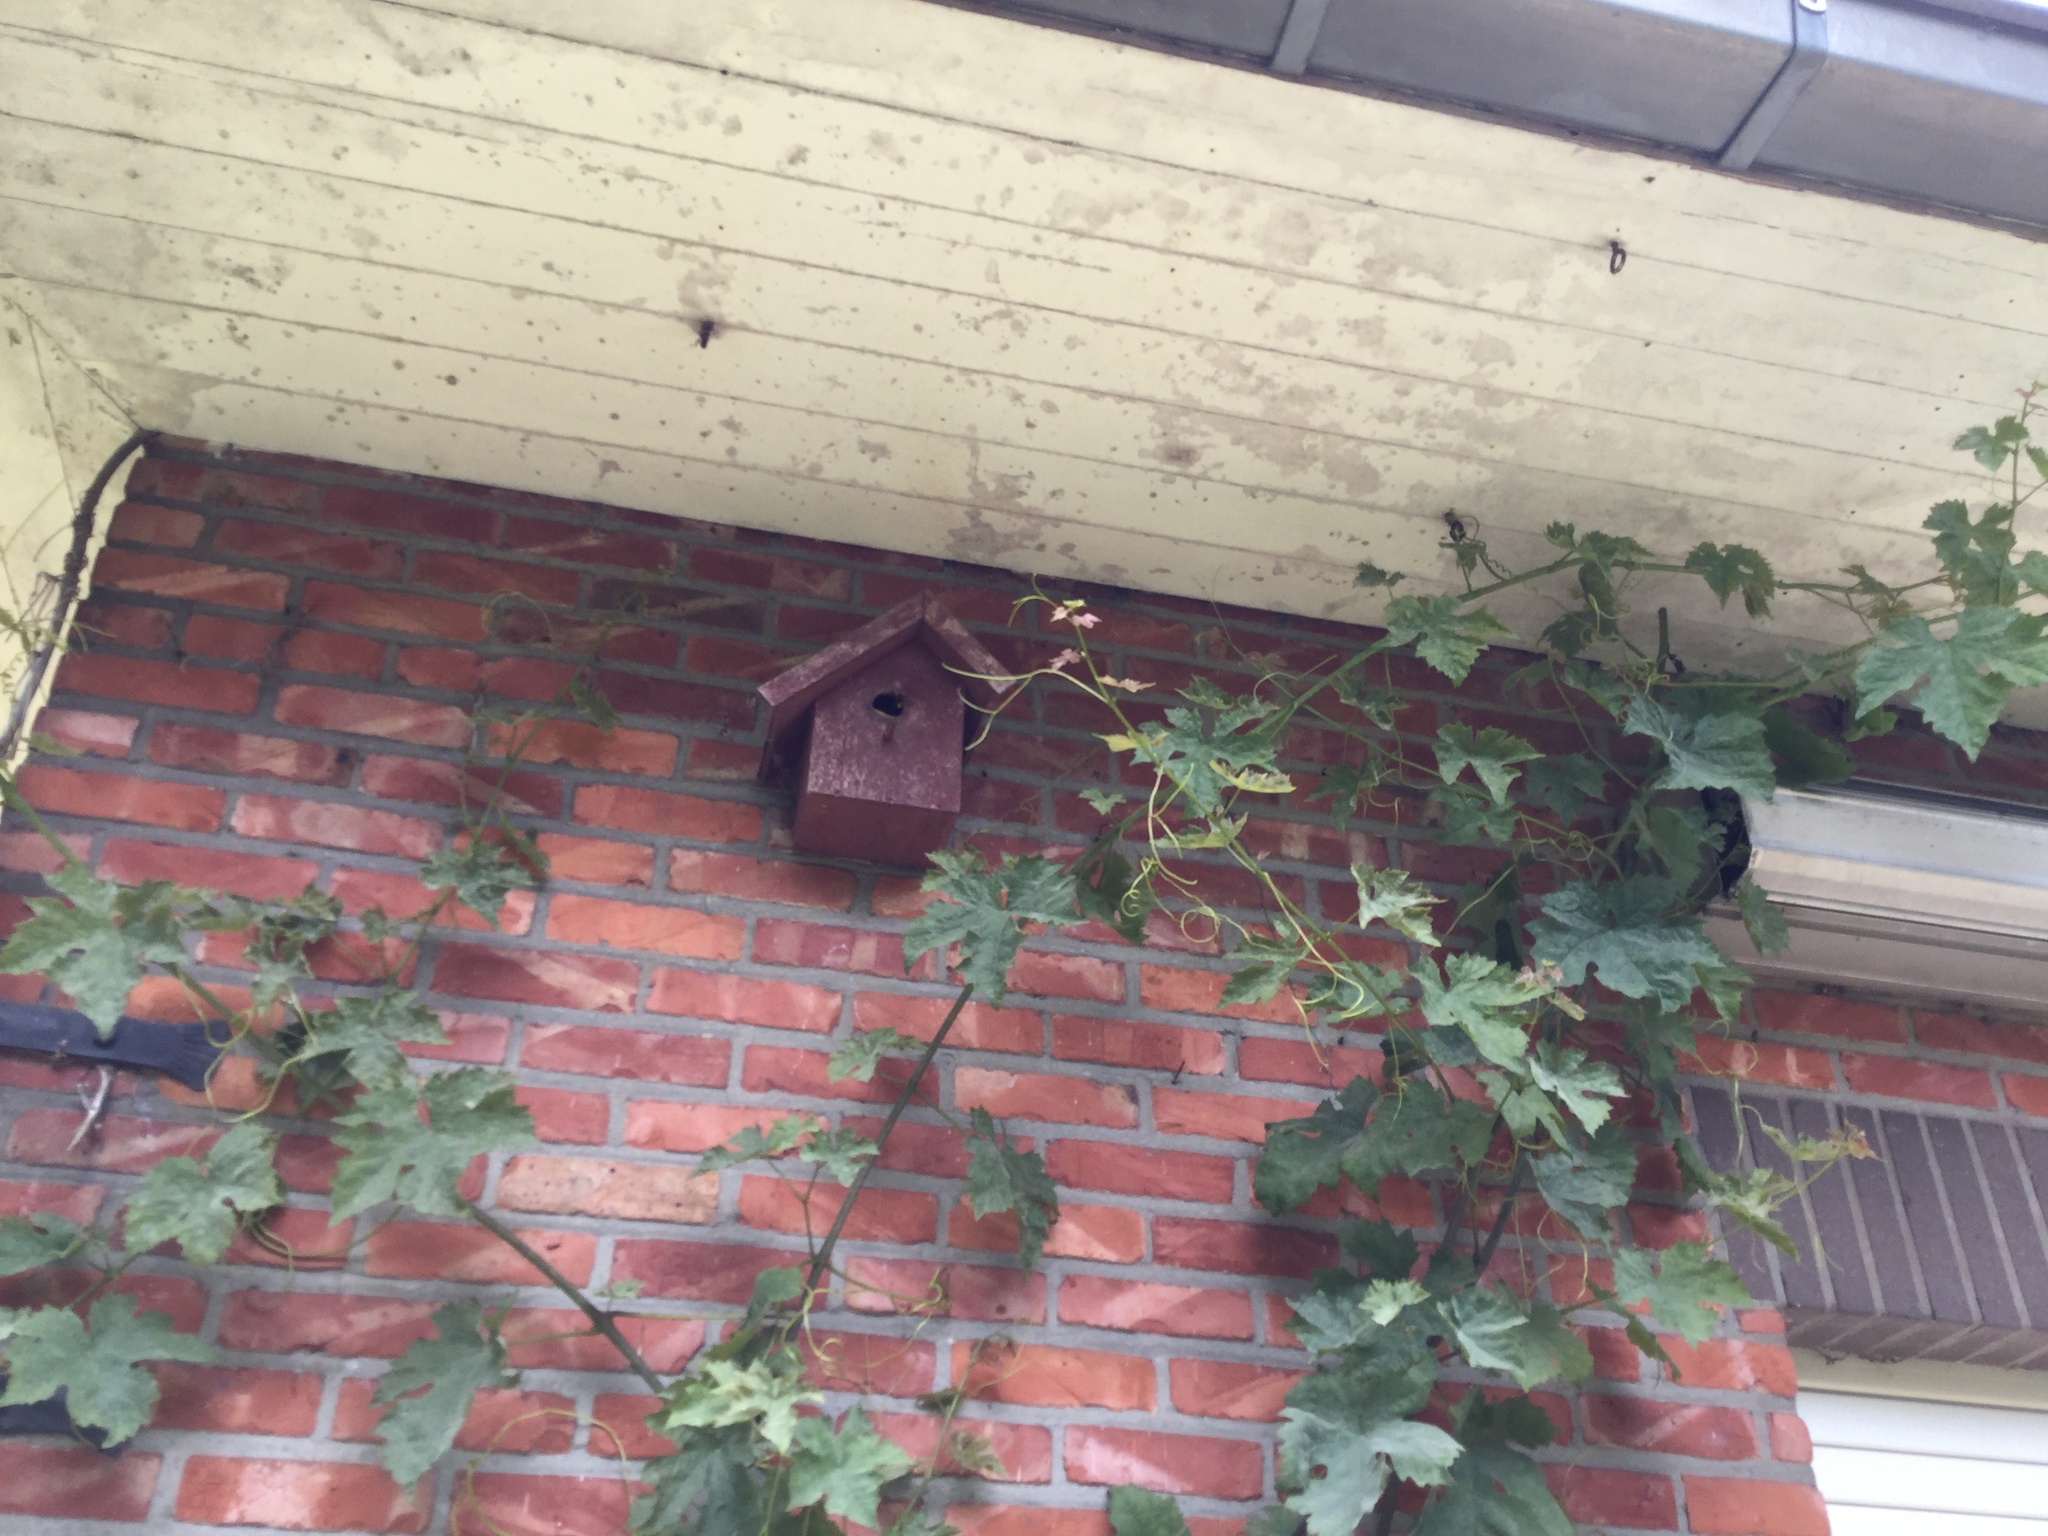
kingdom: Animalia
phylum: Arthropoda
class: Insecta
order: Hymenoptera
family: Vespidae
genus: Vespa
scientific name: Vespa crabro
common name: Hornet
